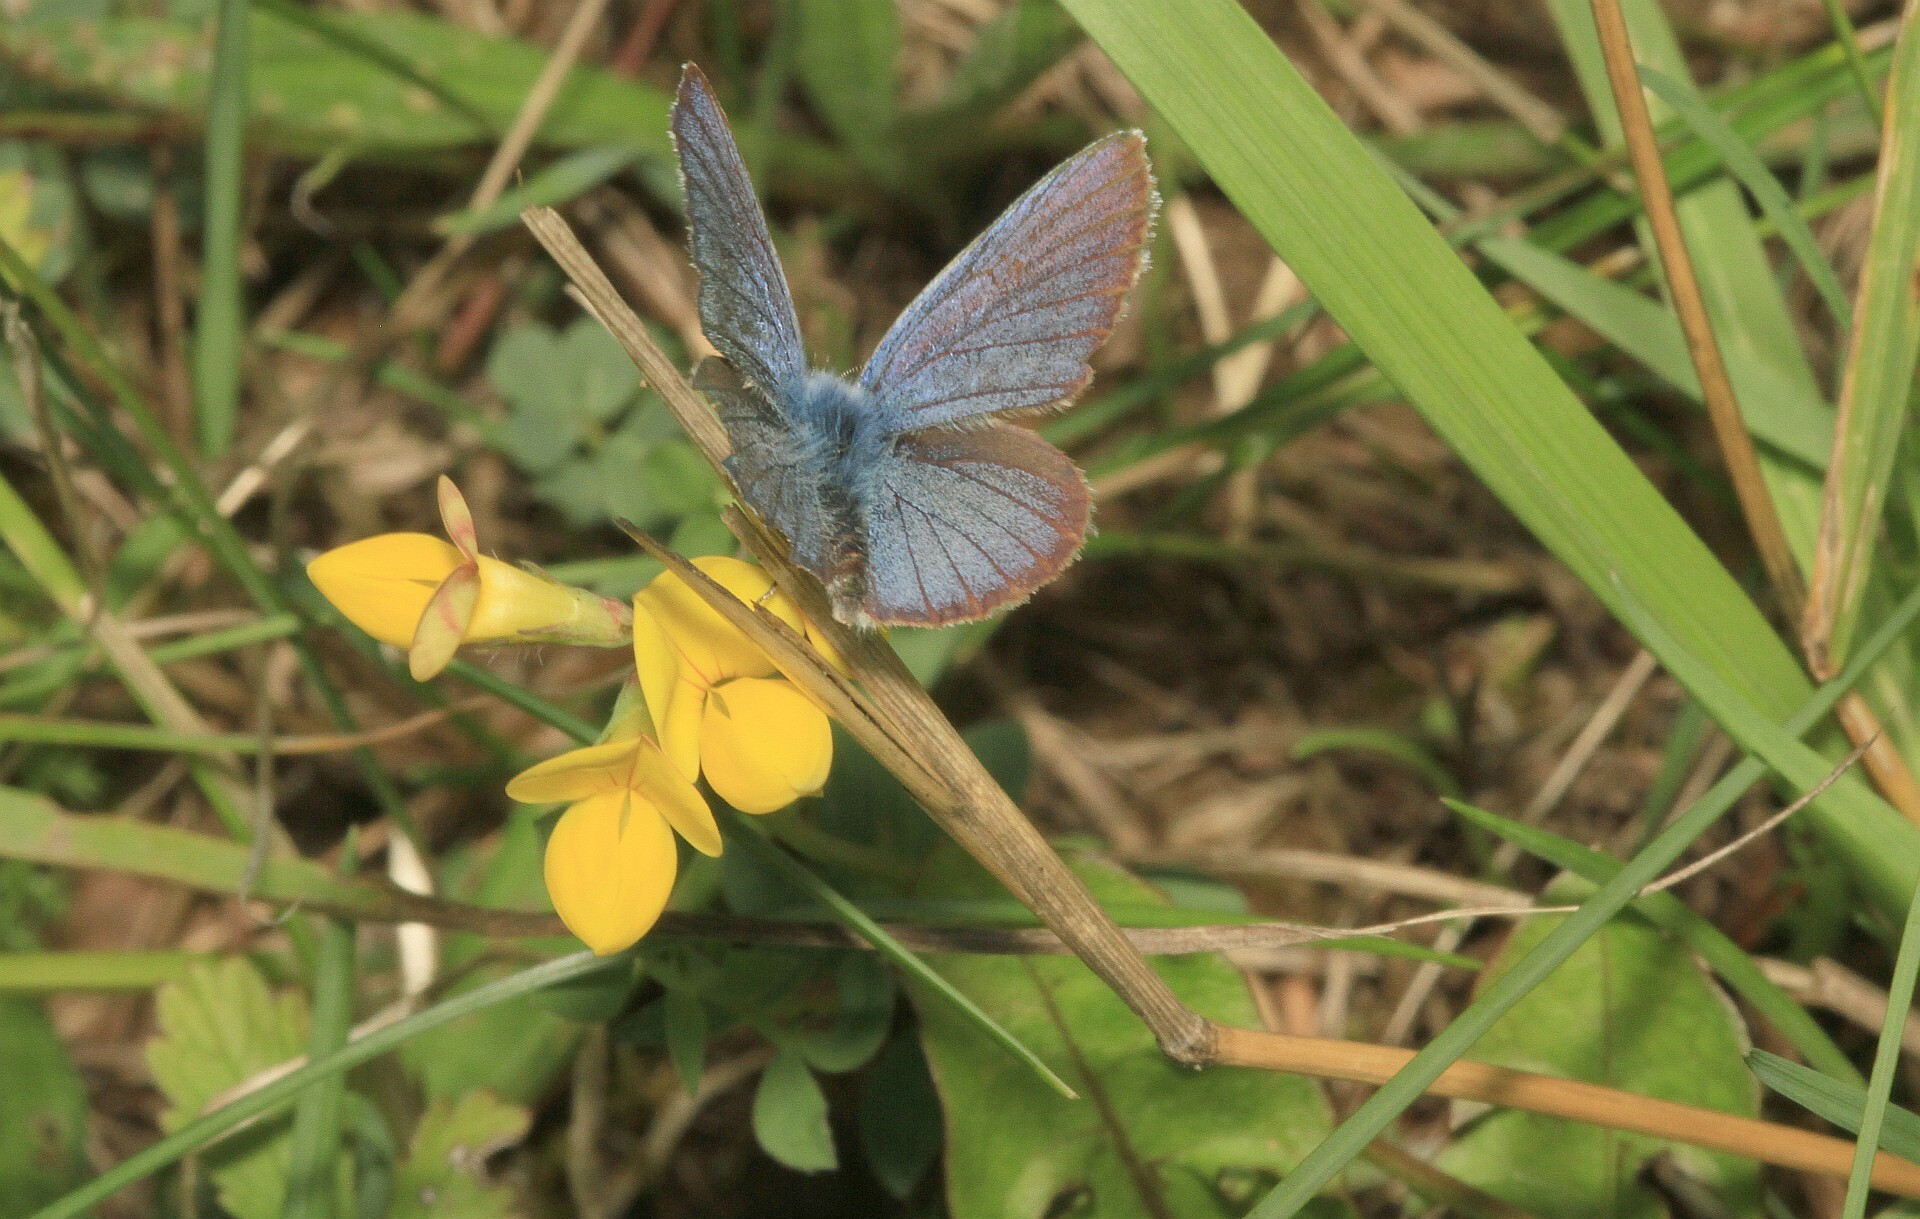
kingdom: Animalia
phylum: Arthropoda
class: Insecta
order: Lepidoptera
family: Lycaenidae
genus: Cyaniris
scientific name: Cyaniris semiargus
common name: Mazarine blue
